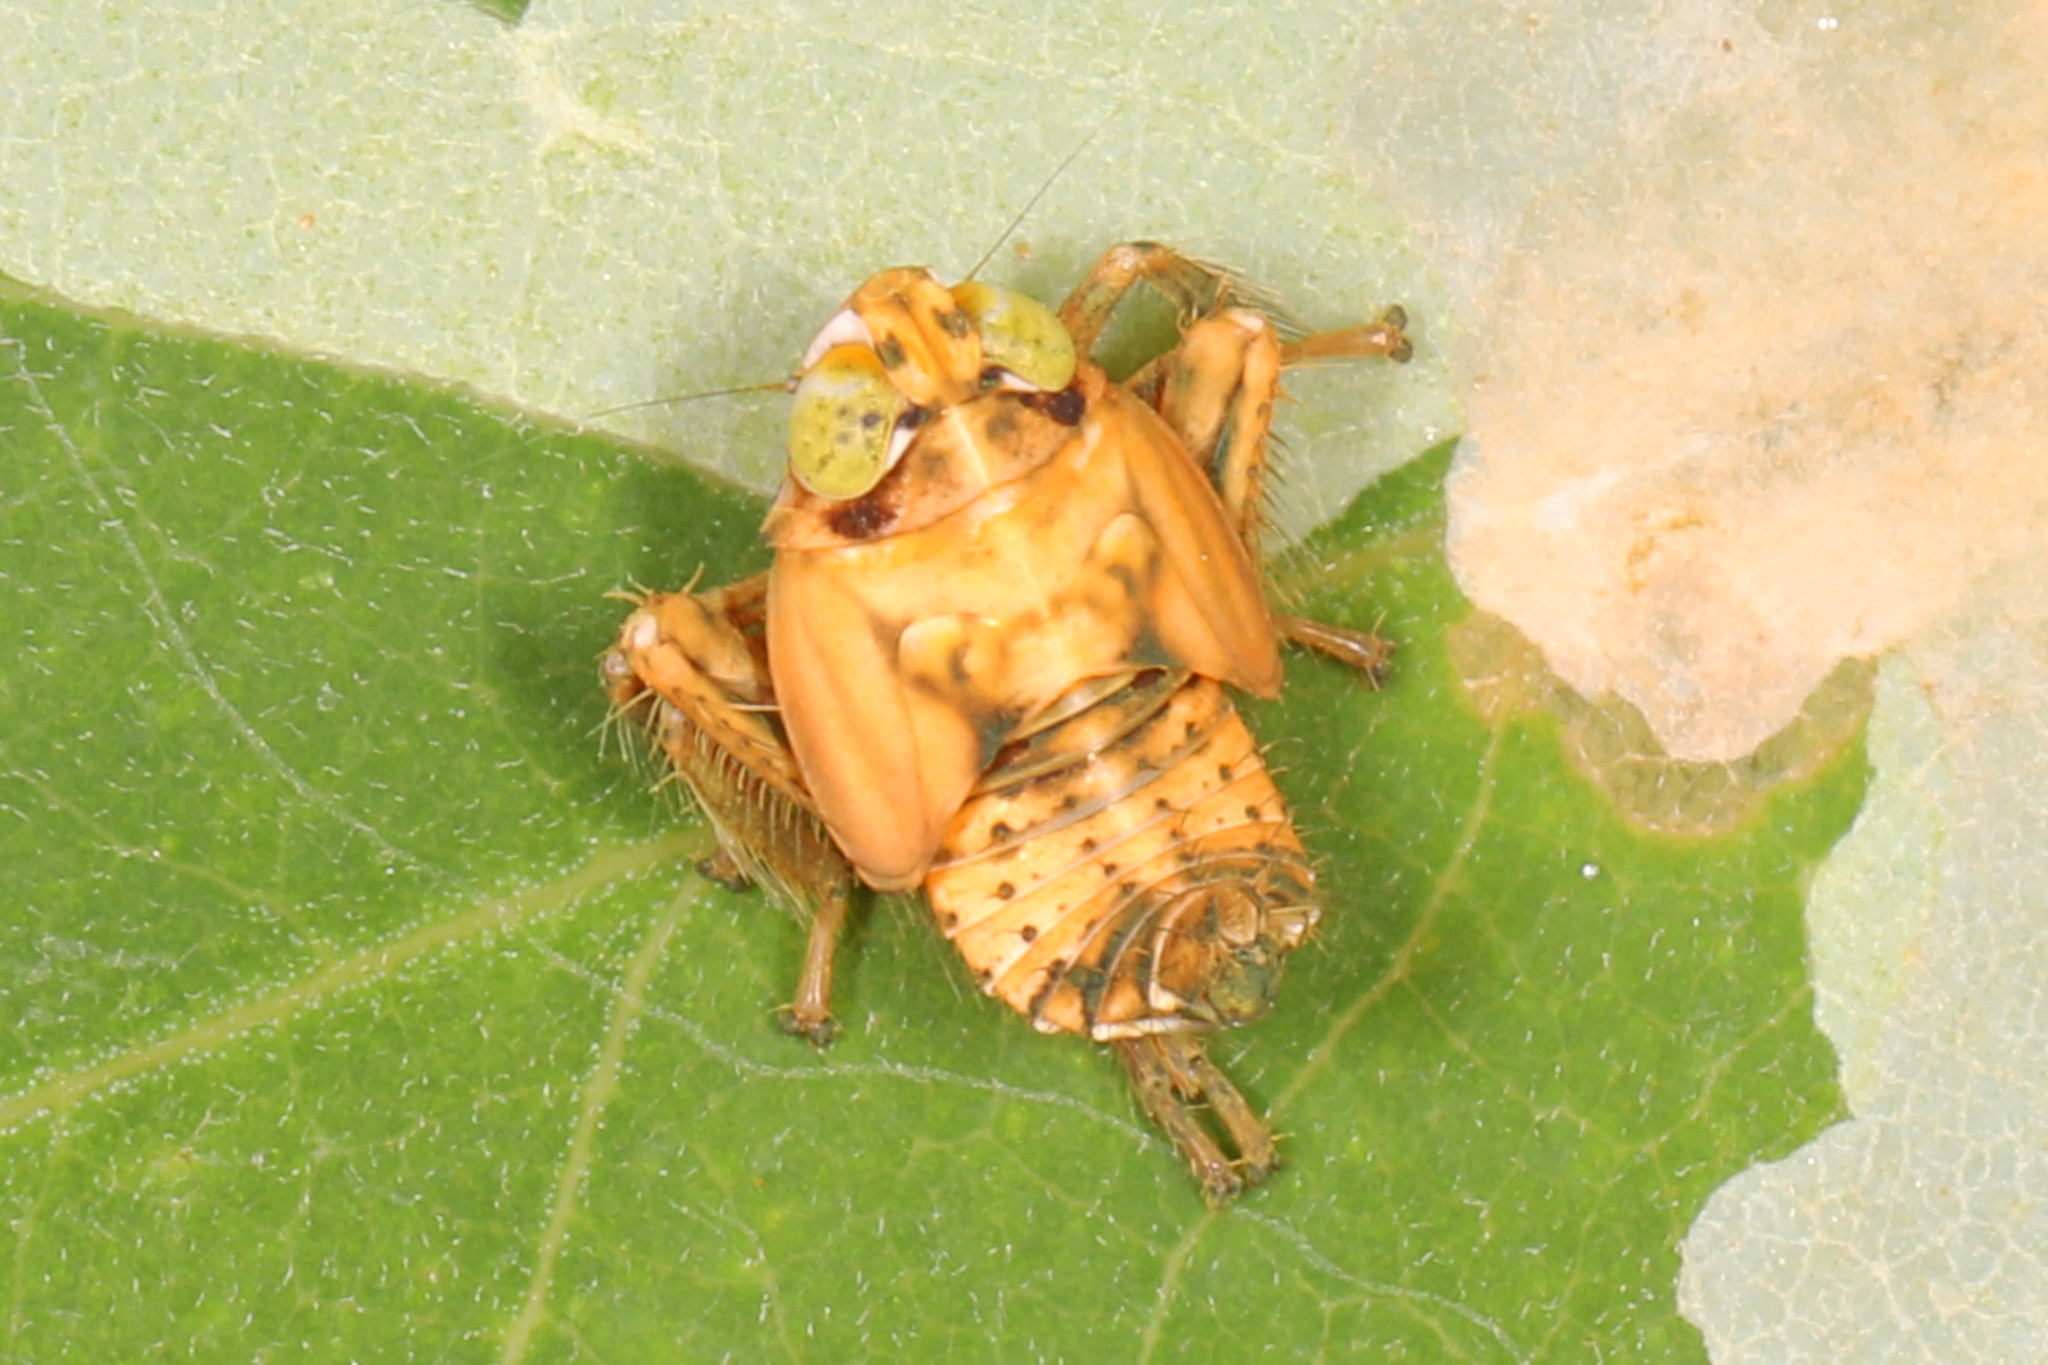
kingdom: Animalia
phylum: Arthropoda
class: Insecta
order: Hemiptera
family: Cicadellidae
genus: Jikradia
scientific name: Jikradia olitoria
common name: Coppery leafhopper
